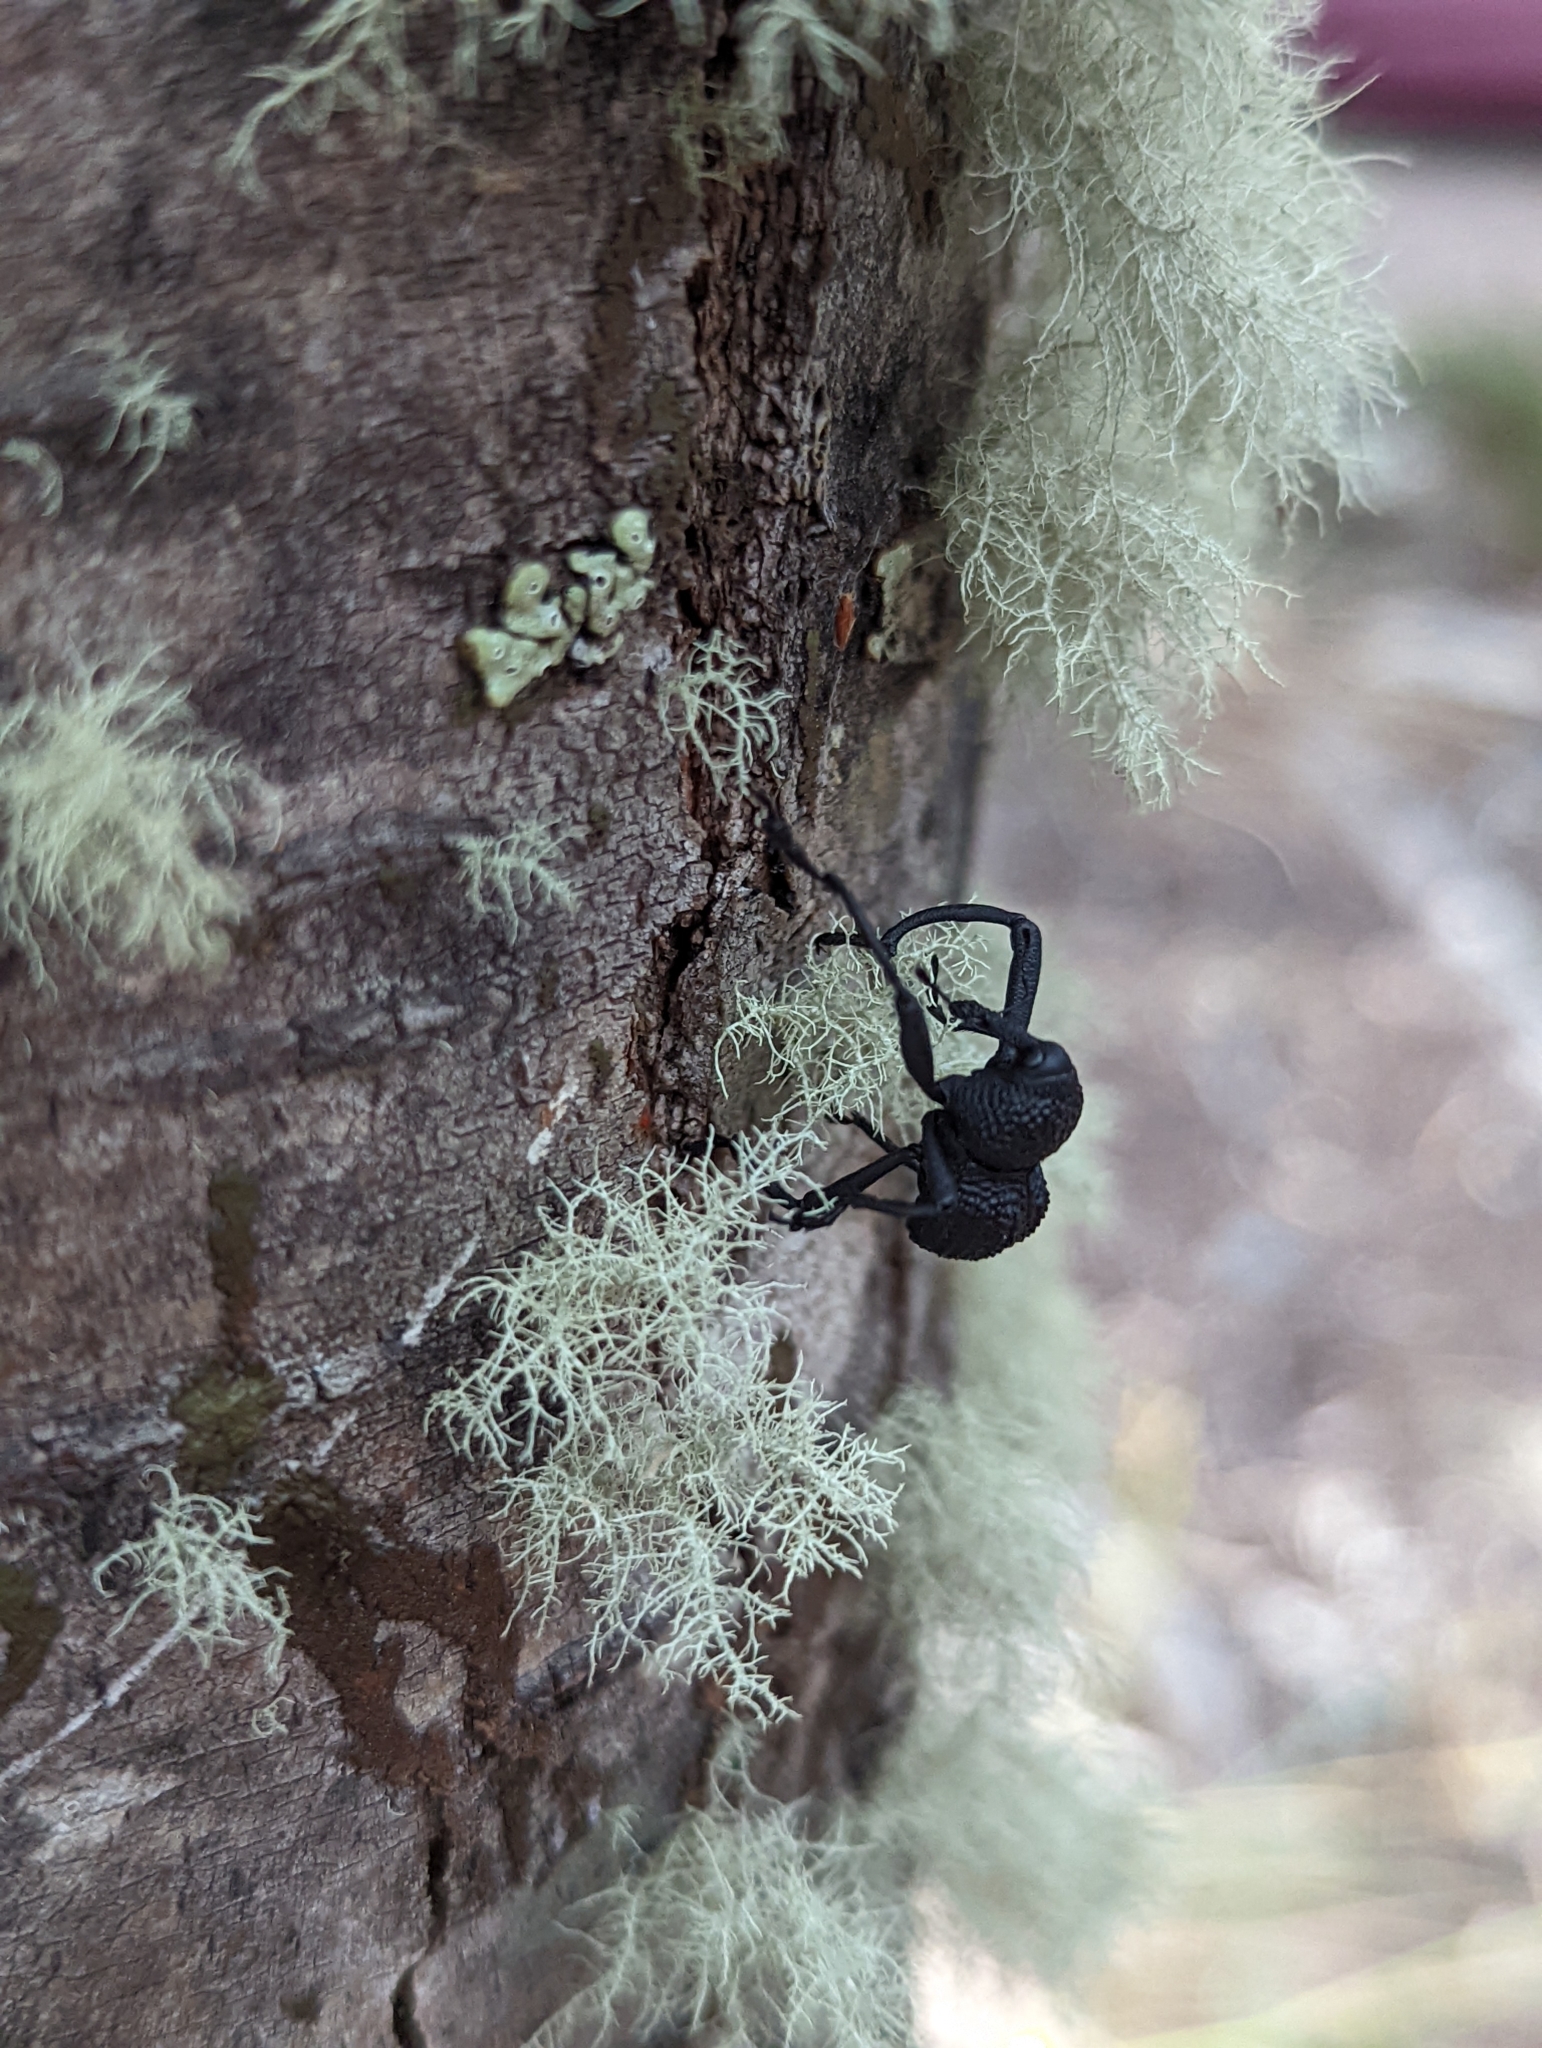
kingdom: Animalia
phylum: Arthropoda
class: Insecta
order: Coleoptera
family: Curculionidae
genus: Rhyephenes
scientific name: Rhyephenes maillei
